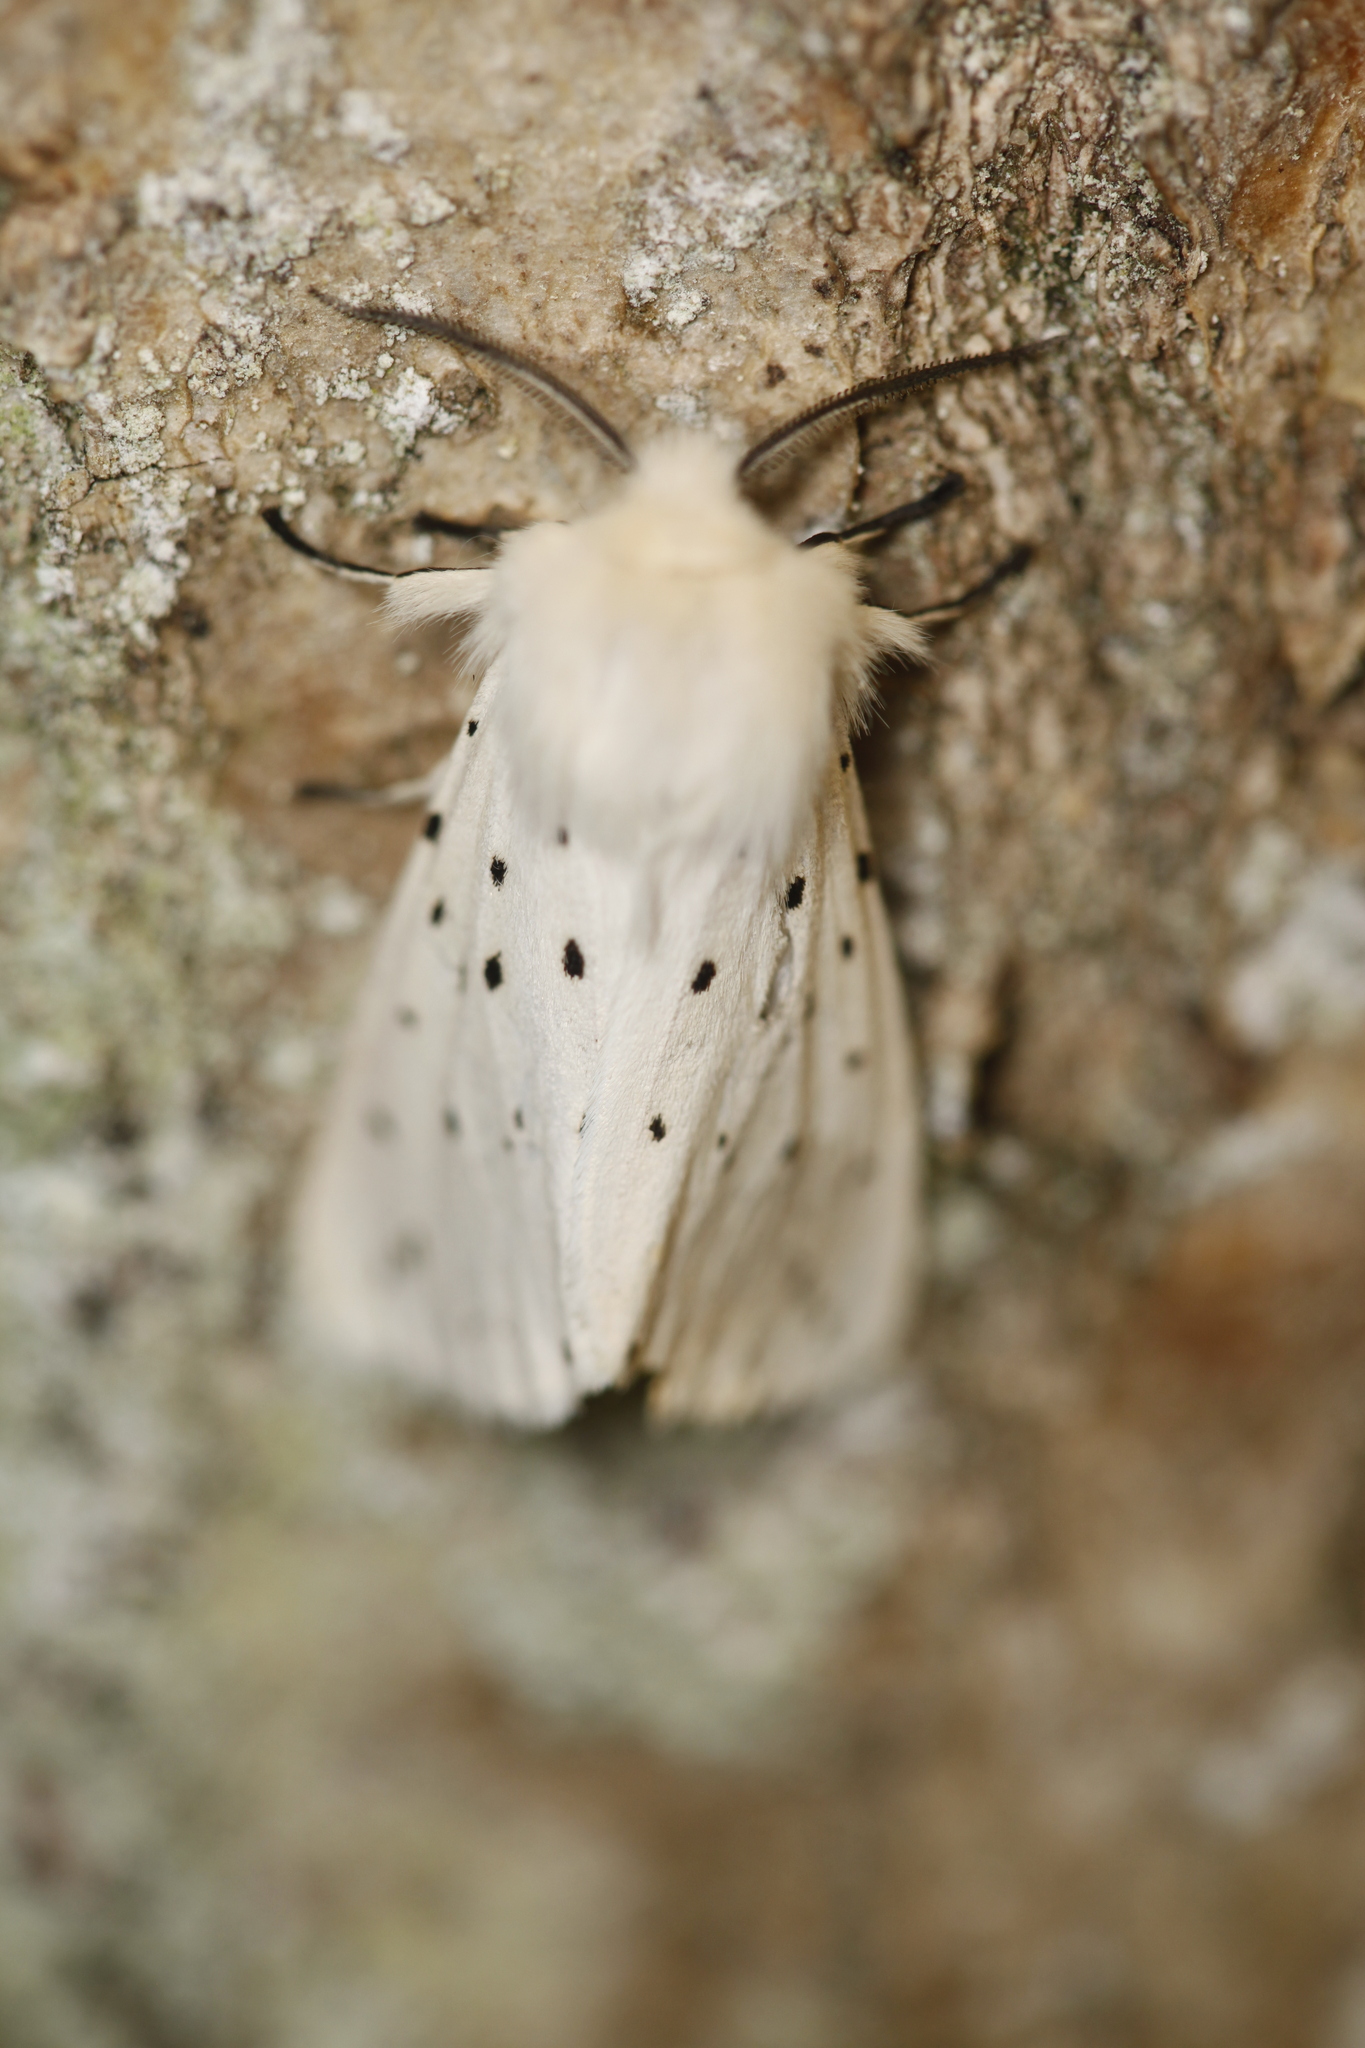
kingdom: Animalia
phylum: Arthropoda
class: Insecta
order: Lepidoptera
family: Erebidae
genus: Spilosoma
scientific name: Spilosoma lubricipeda
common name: White ermine
